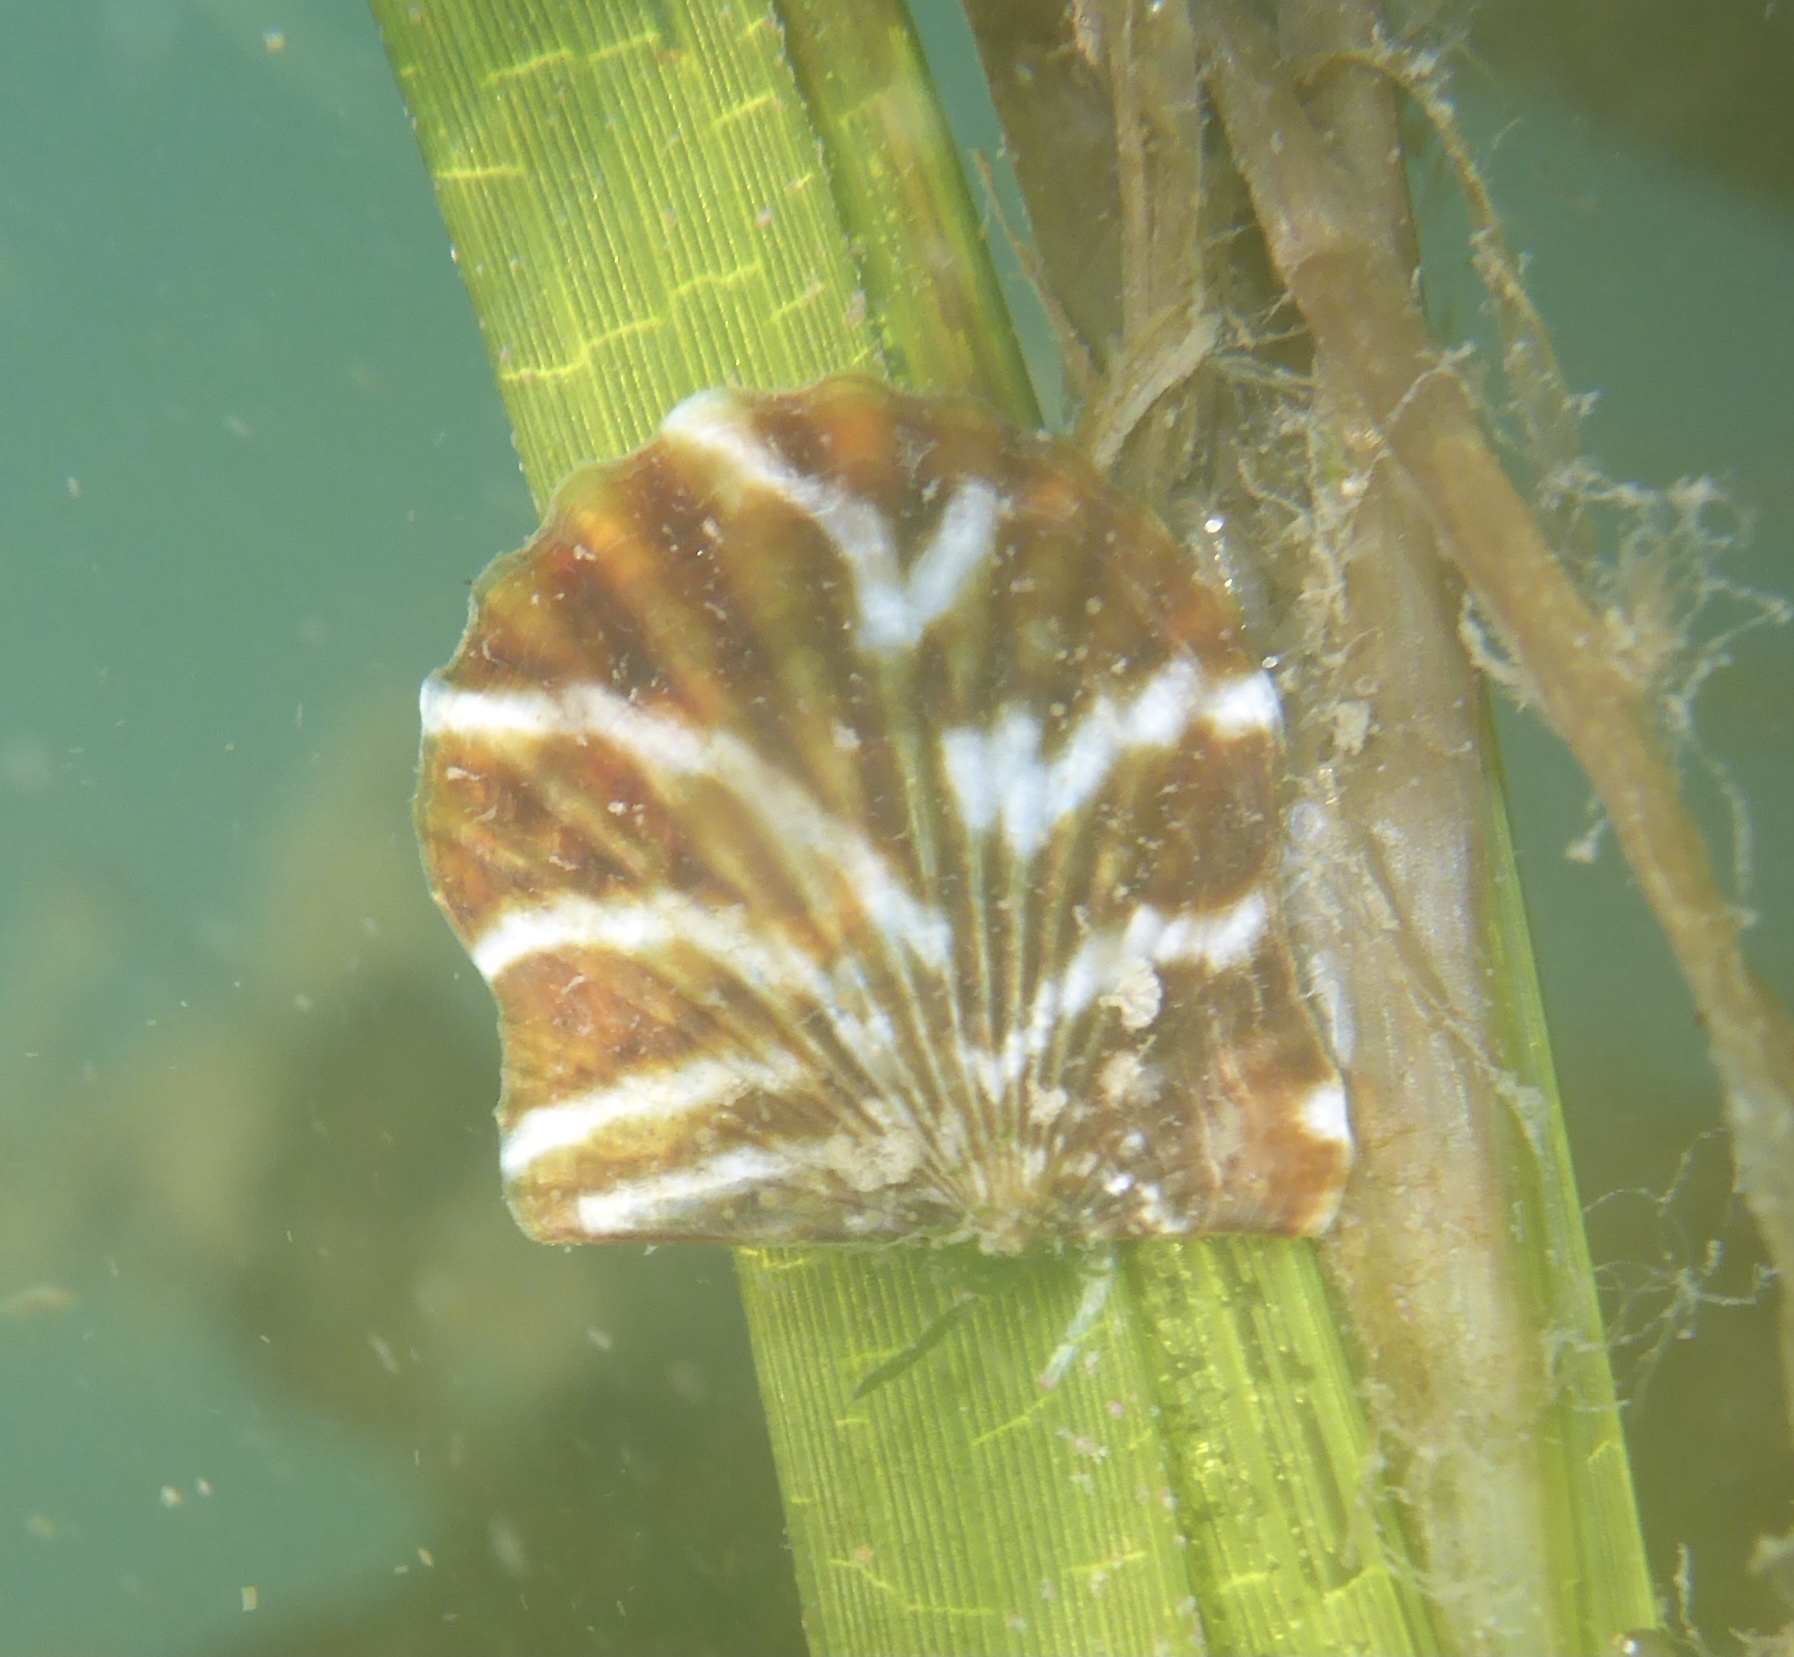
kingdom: Animalia
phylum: Mollusca
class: Bivalvia
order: Pectinida
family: Pectinidae
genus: Leptopecten
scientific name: Leptopecten latiauratus
